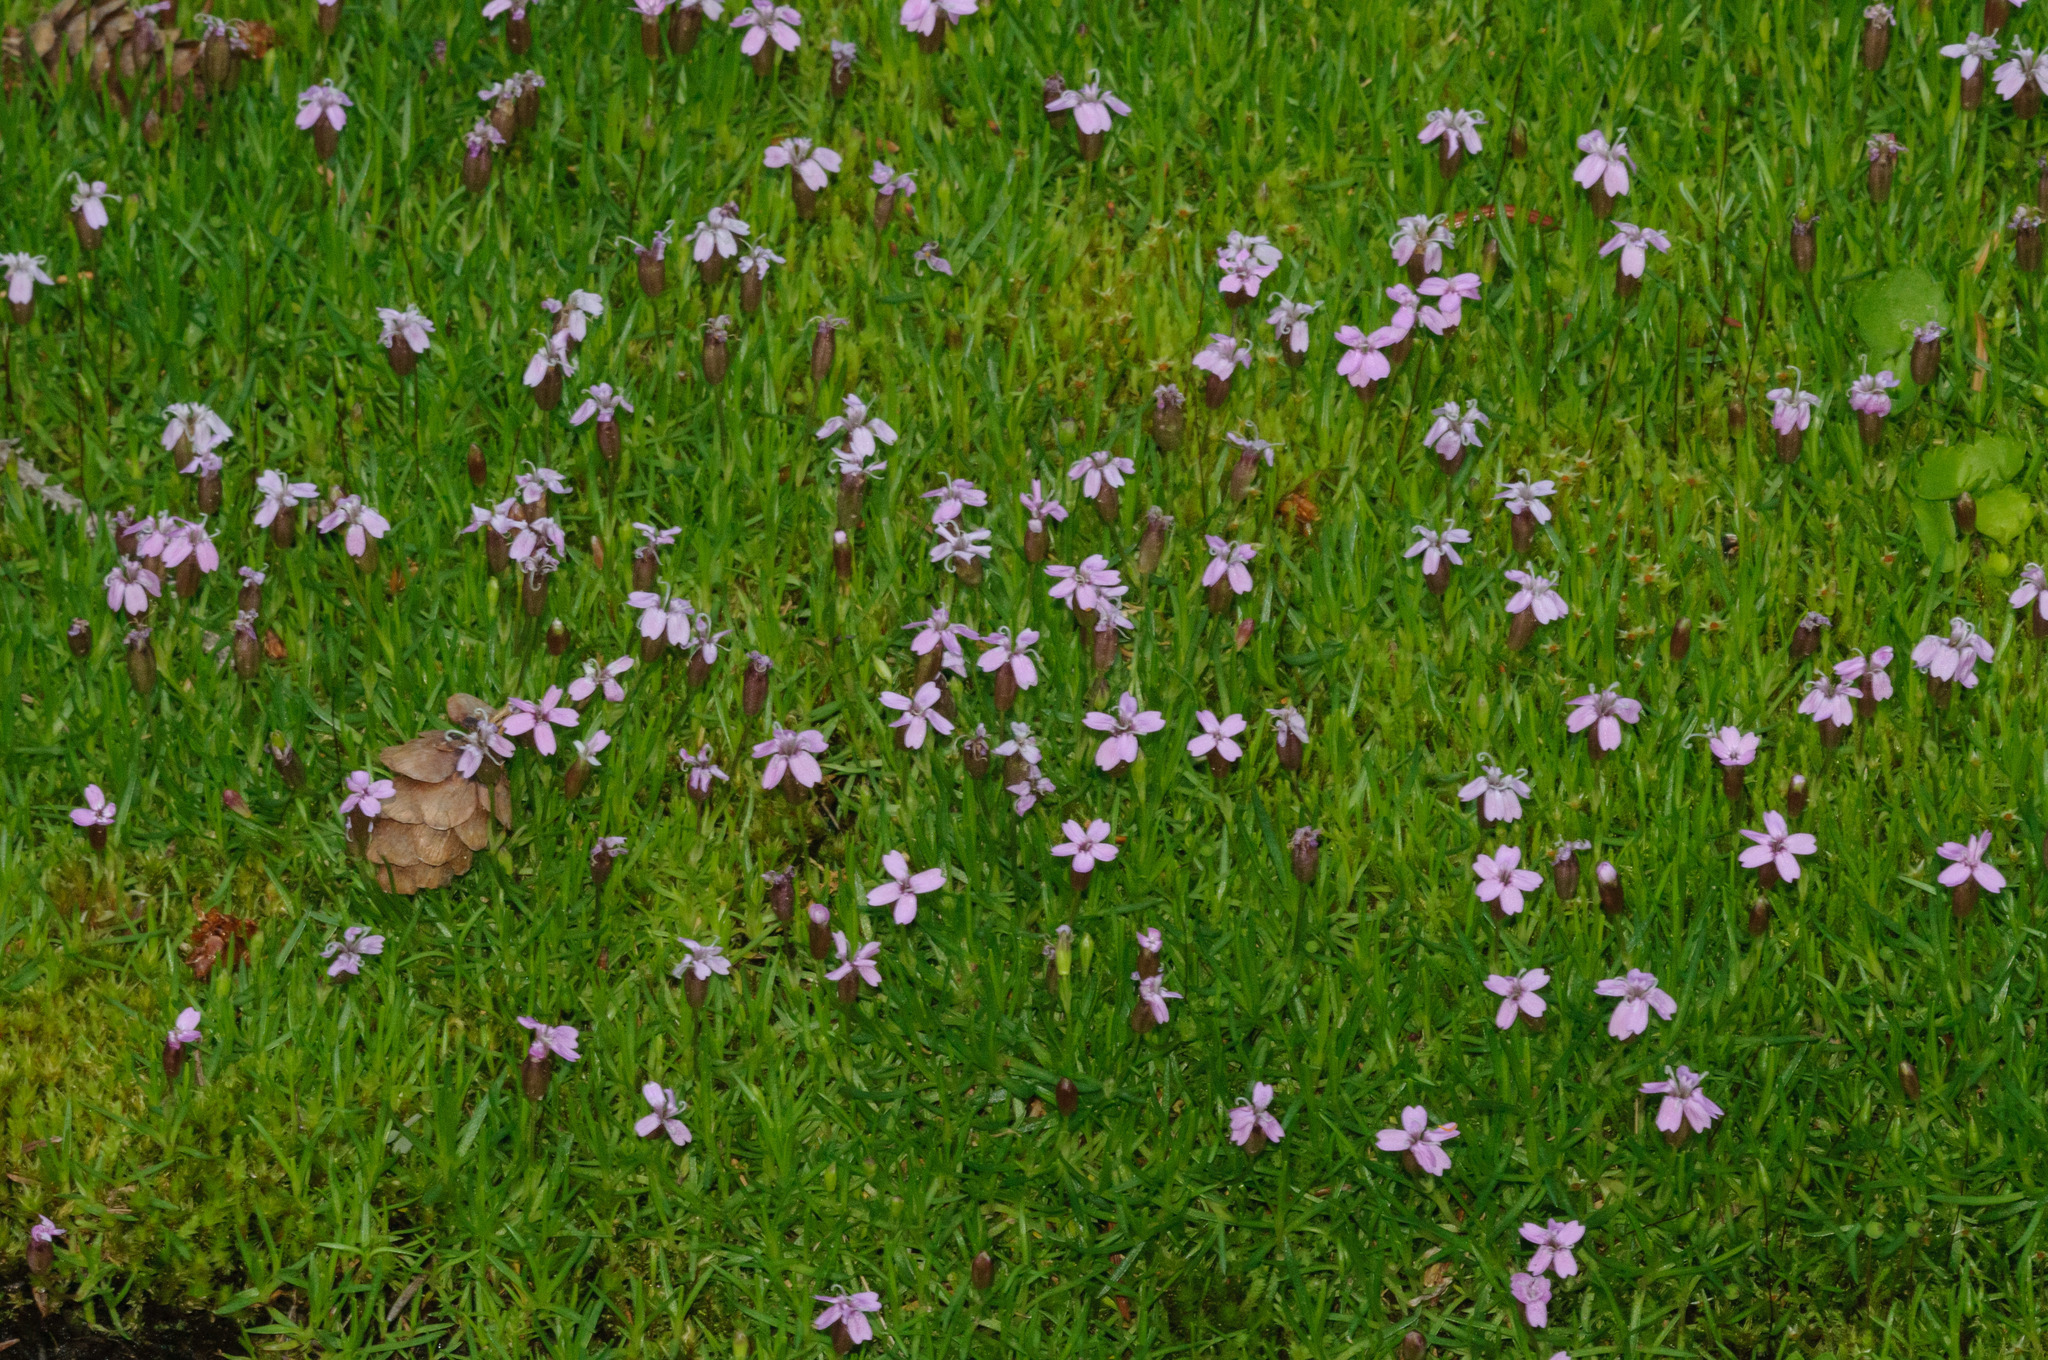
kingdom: Plantae
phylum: Tracheophyta
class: Magnoliopsida
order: Caryophyllales
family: Caryophyllaceae
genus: Silene
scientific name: Silene acaulis
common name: Moss campion
